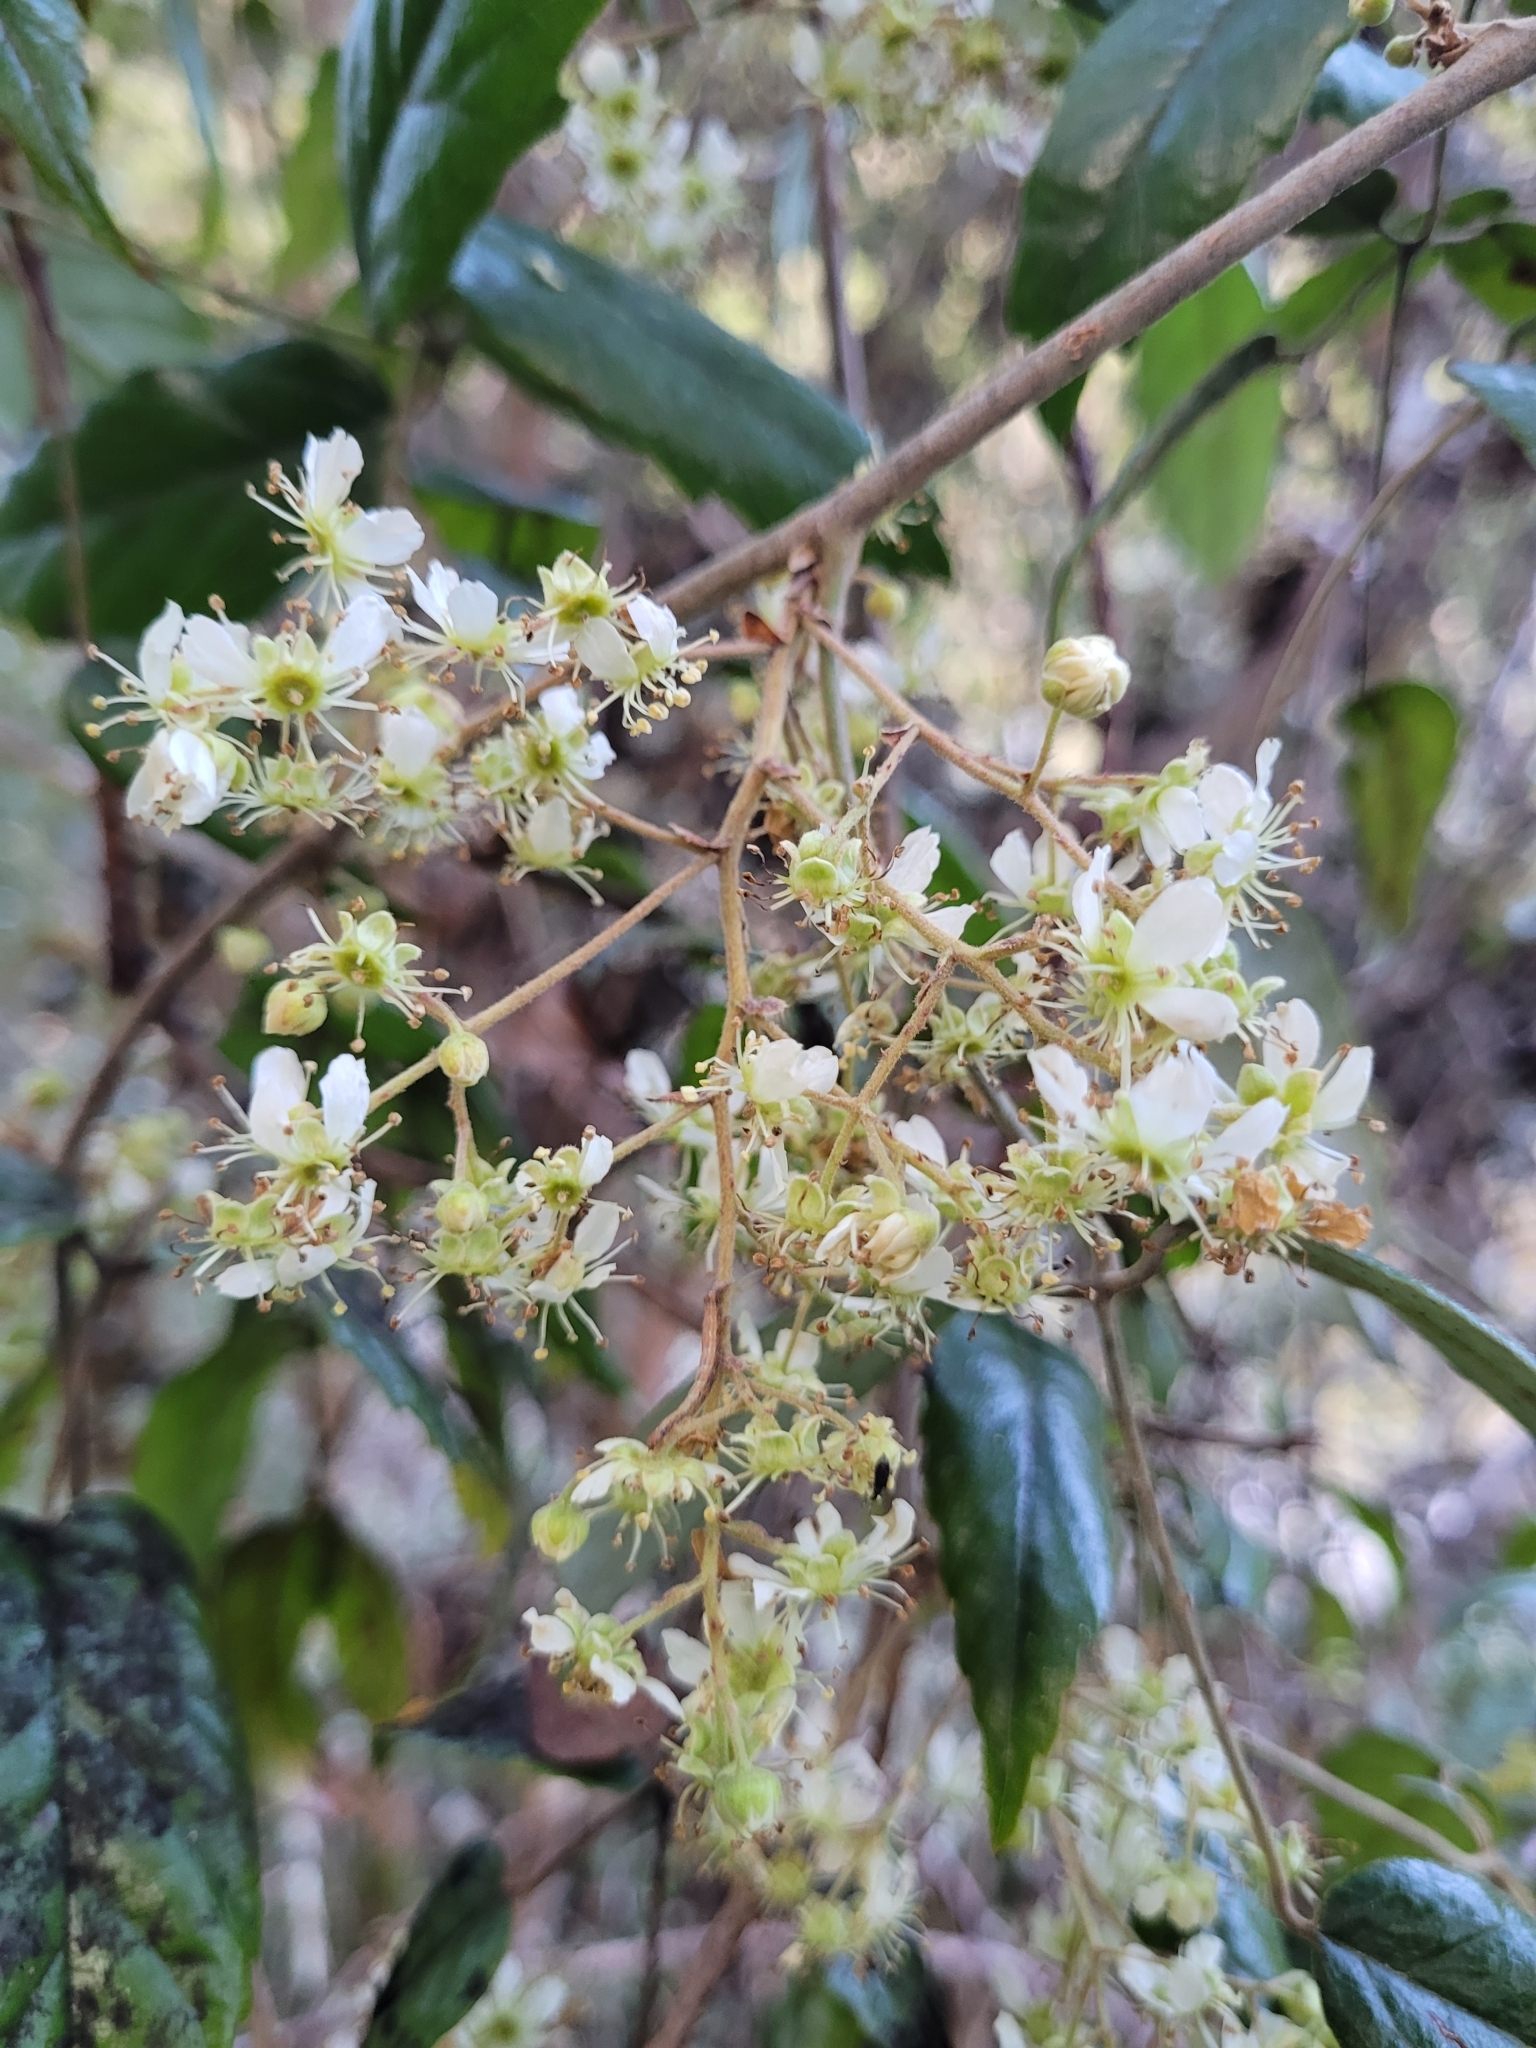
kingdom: Plantae
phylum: Tracheophyta
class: Magnoliopsida
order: Rosales
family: Rosaceae
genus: Rubus
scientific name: Rubus schmidelioides
